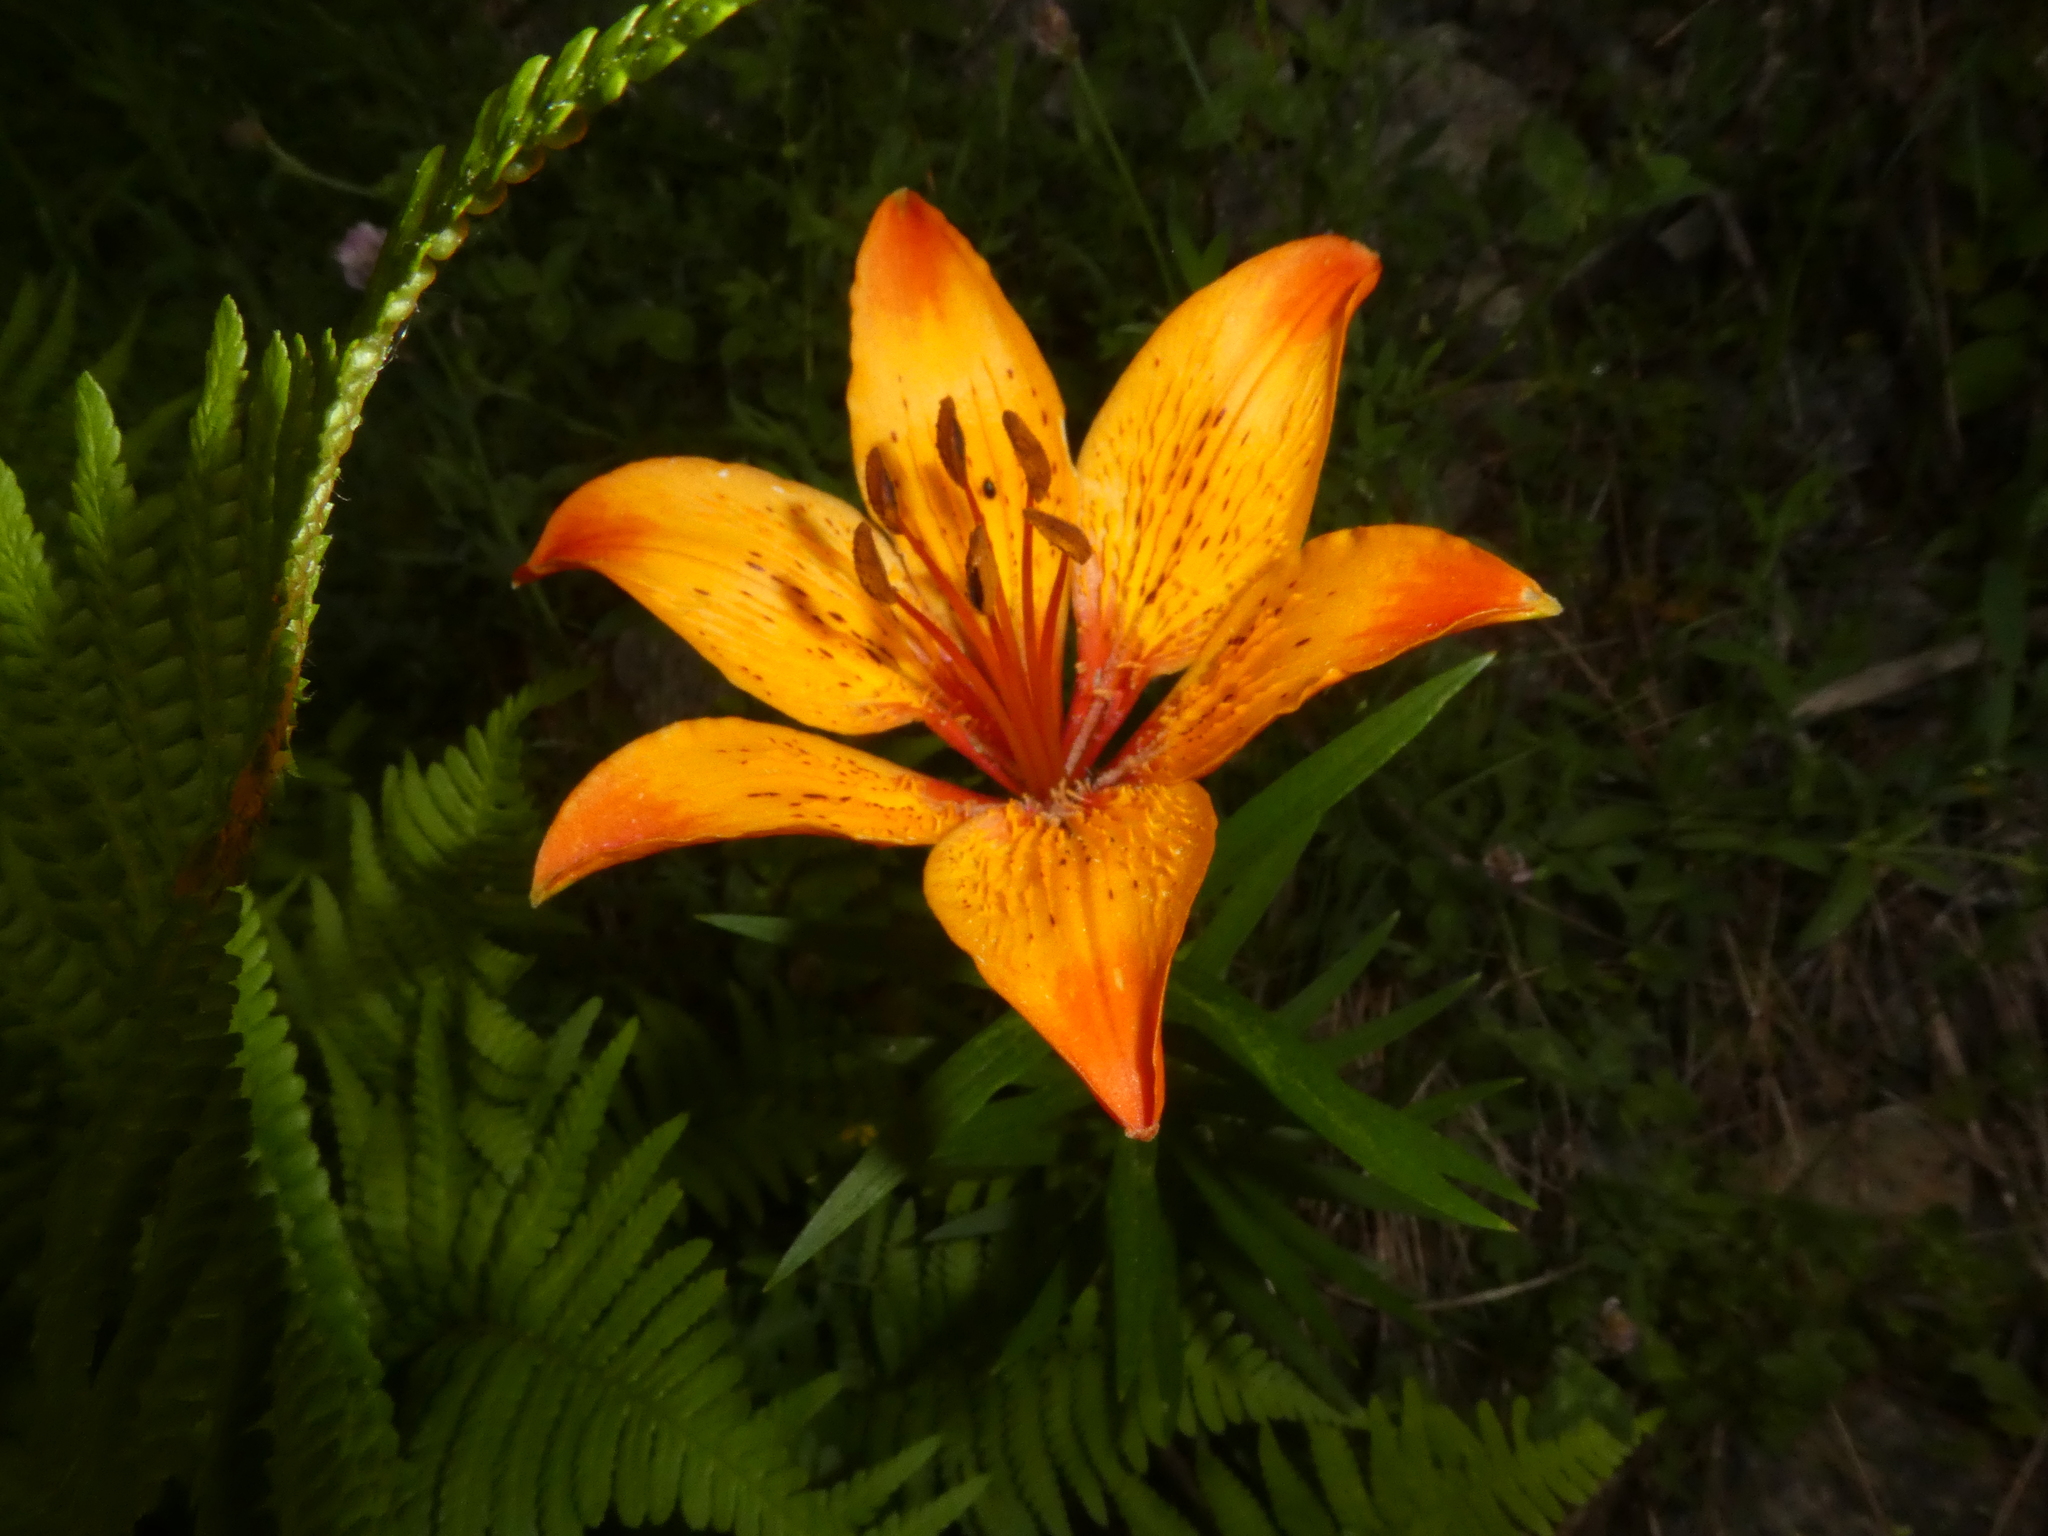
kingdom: Plantae
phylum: Tracheophyta
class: Liliopsida
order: Liliales
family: Liliaceae
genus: Lilium
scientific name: Lilium bulbiferum
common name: Orange lily
